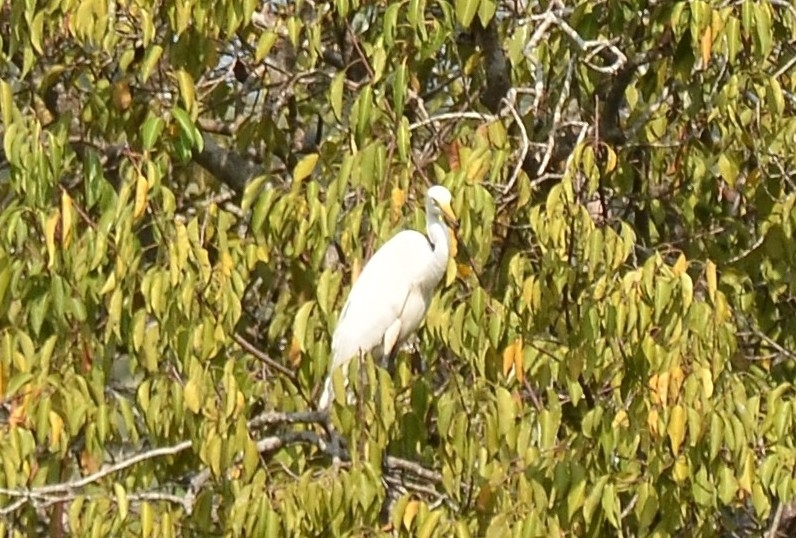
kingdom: Animalia
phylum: Chordata
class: Aves
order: Pelecaniformes
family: Ardeidae
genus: Egretta
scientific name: Egretta intermedia
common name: Intermediate egret
